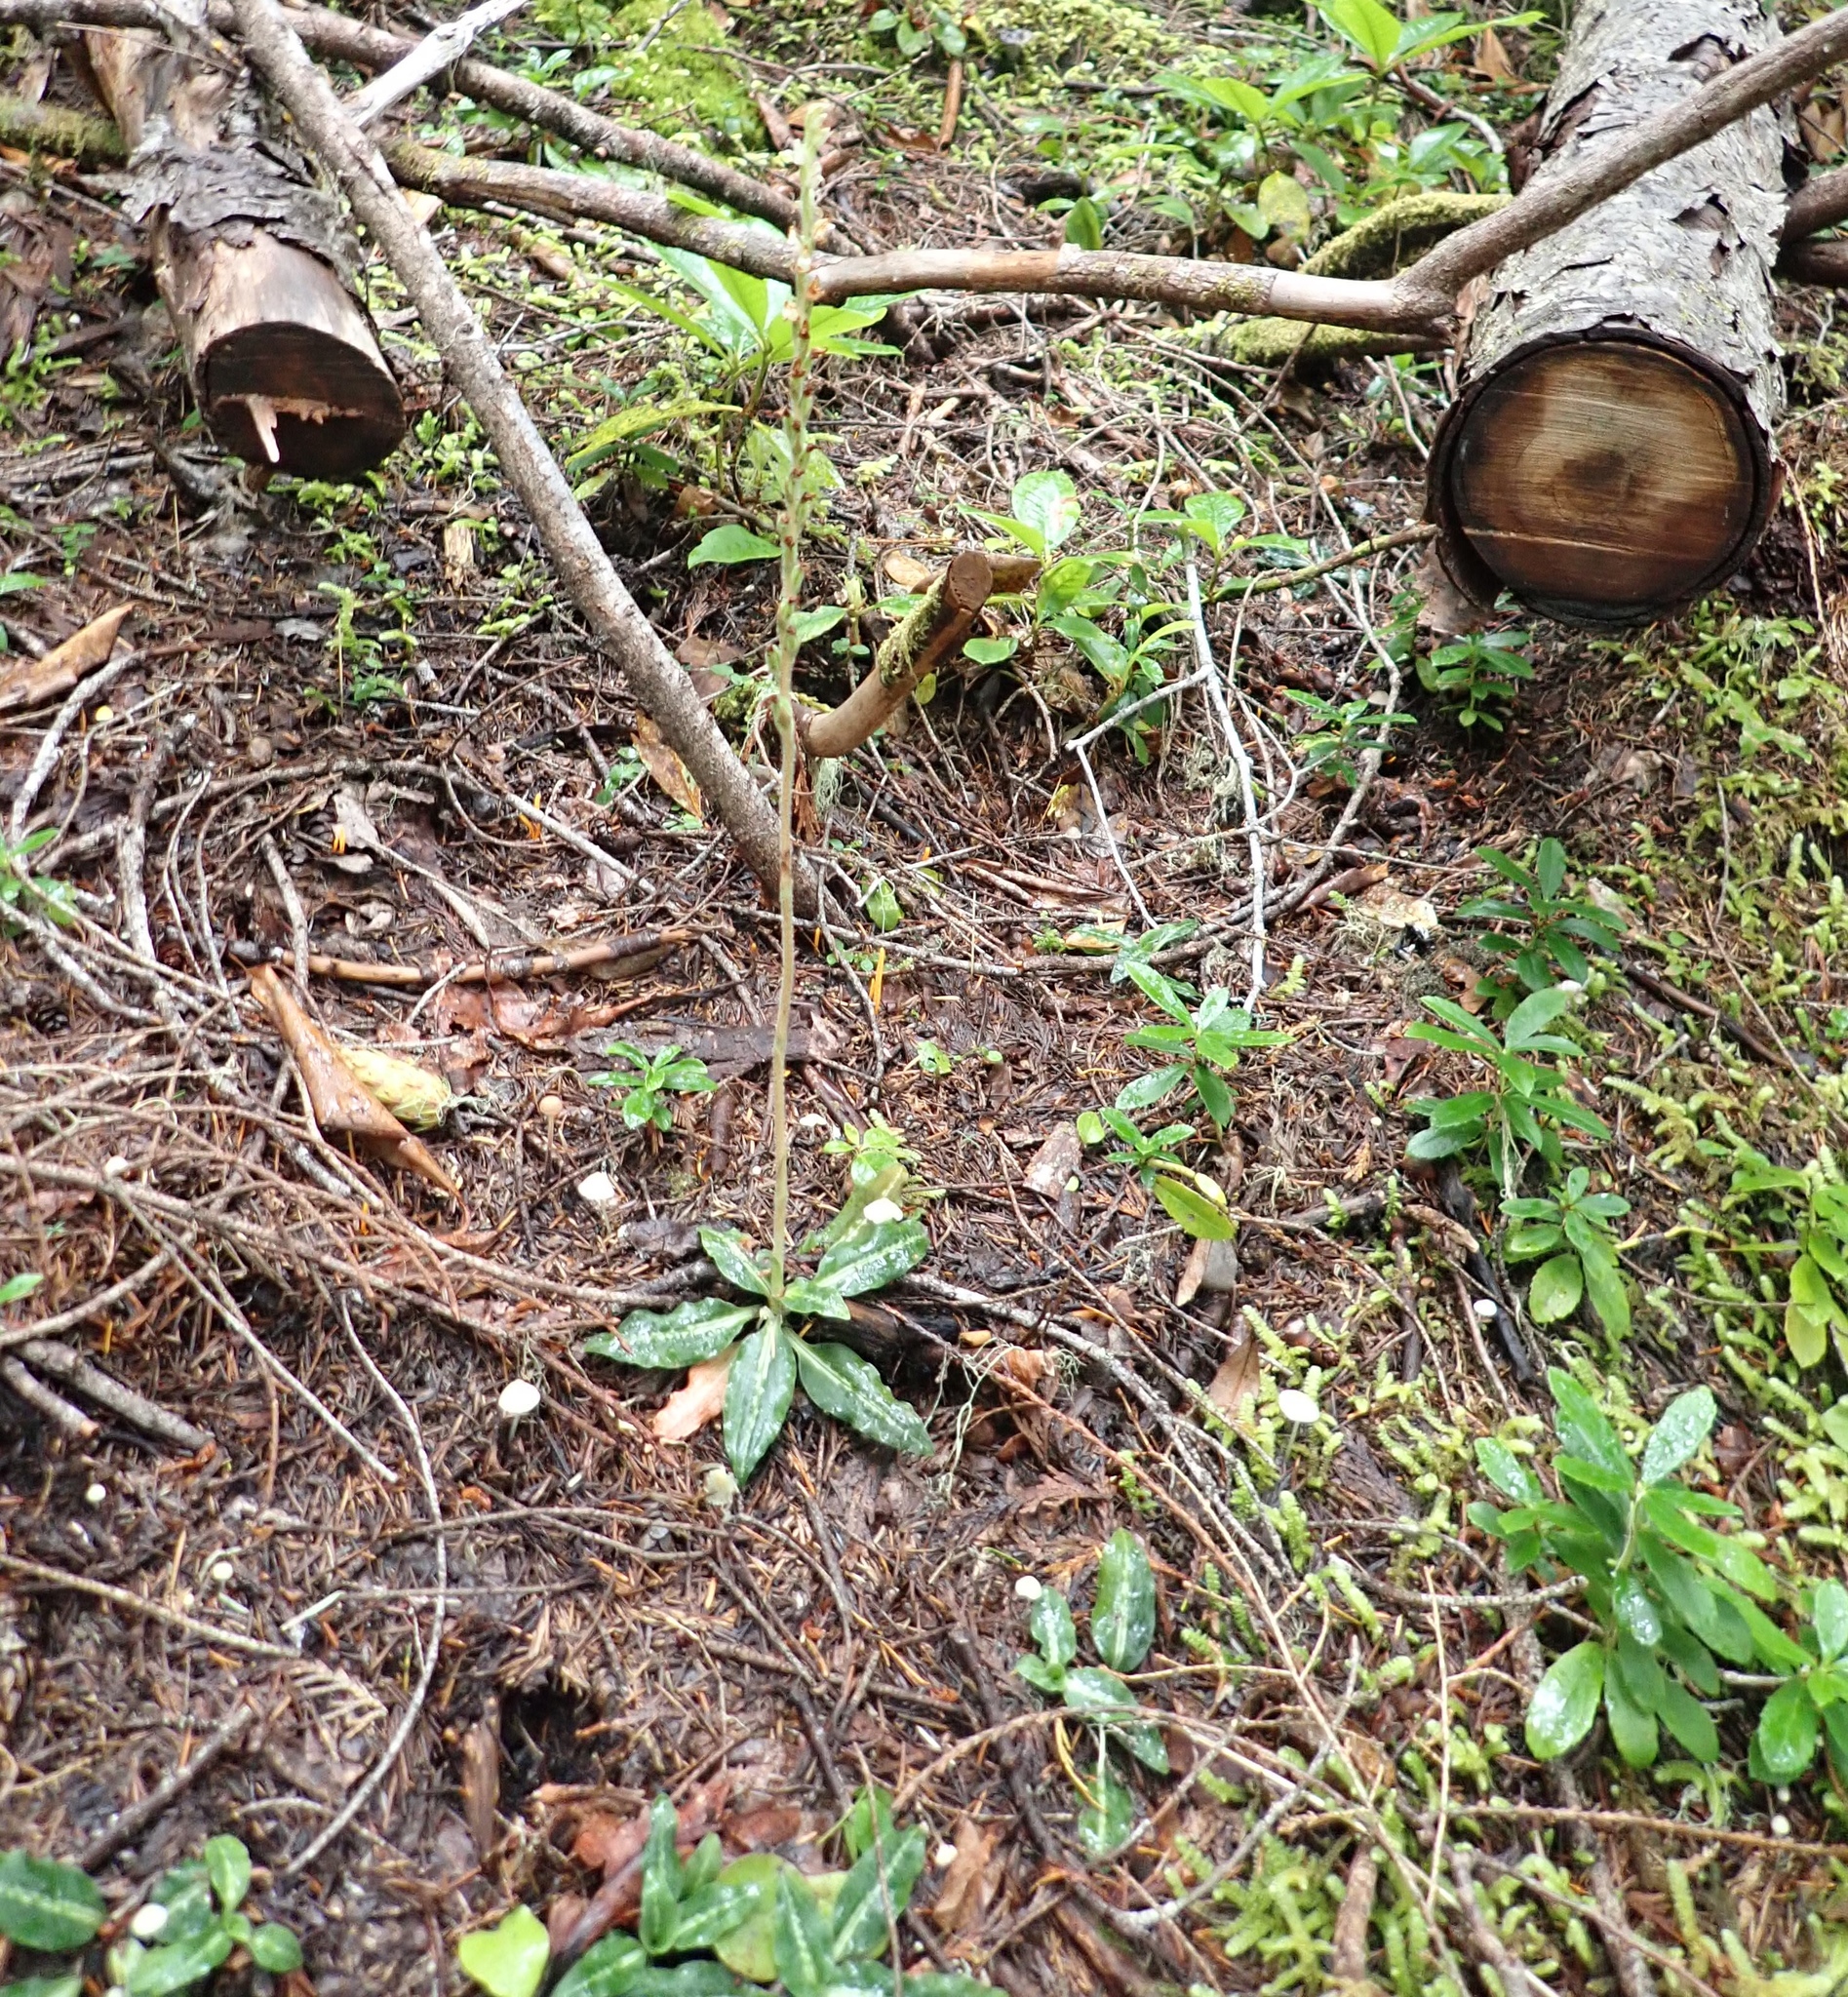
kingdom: Plantae
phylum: Tracheophyta
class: Liliopsida
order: Asparagales
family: Orchidaceae
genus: Goodyera
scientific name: Goodyera oblongifolia
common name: Giant rattlesnake-plantain
